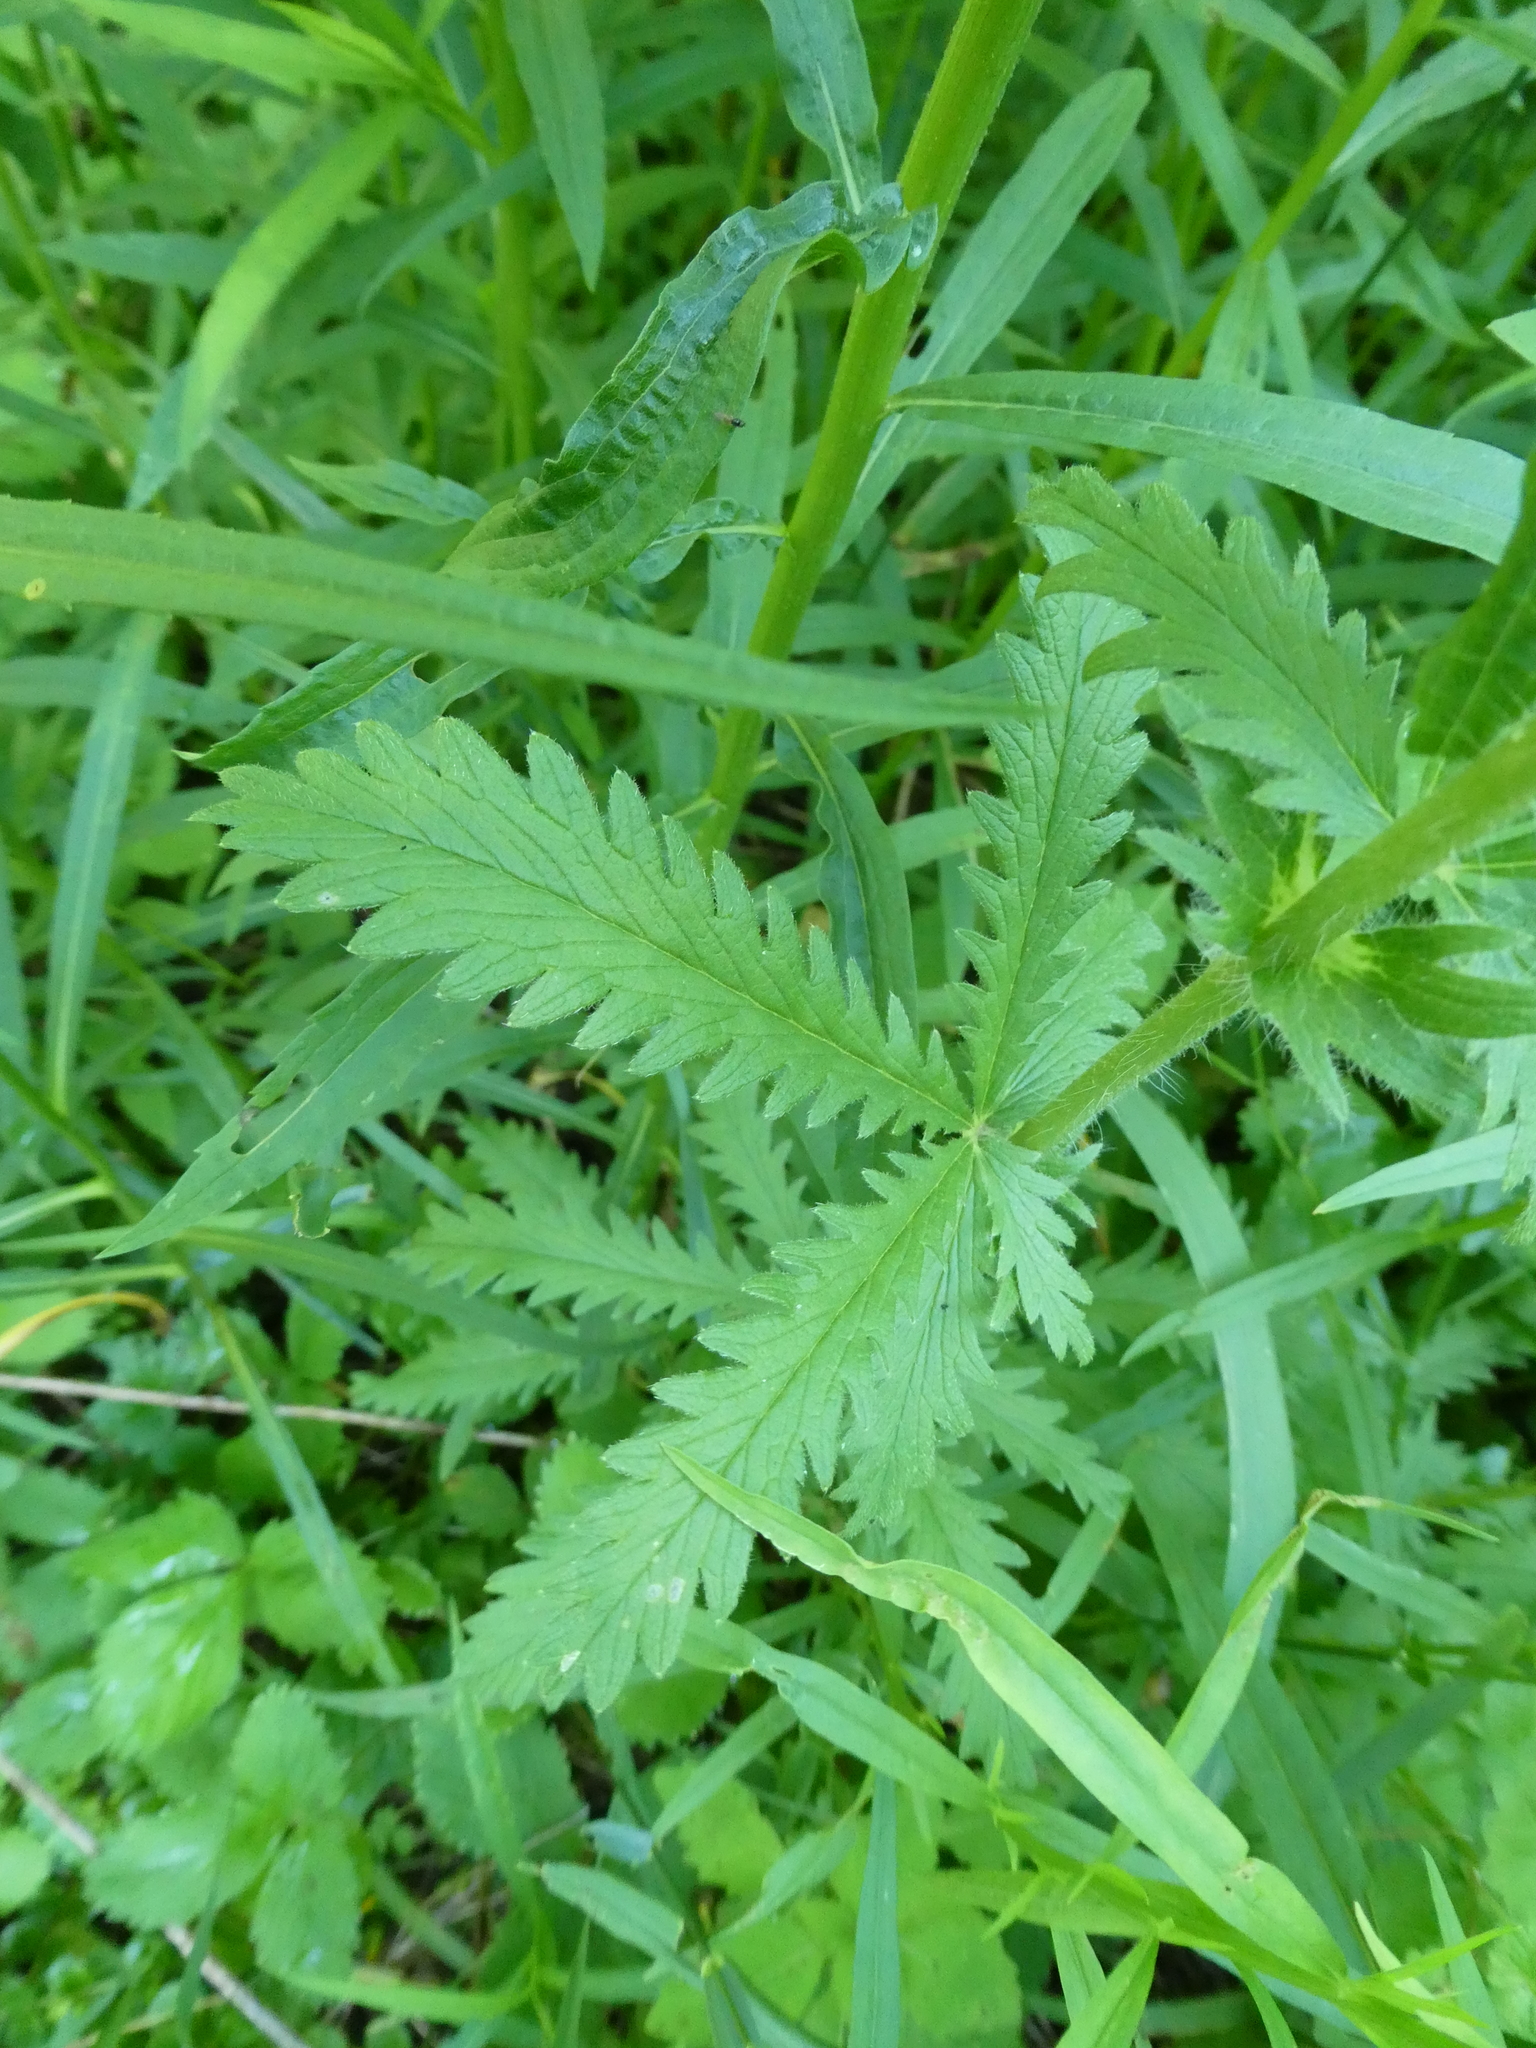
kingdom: Plantae
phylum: Tracheophyta
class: Magnoliopsida
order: Rosales
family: Rosaceae
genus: Potentilla
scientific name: Potentilla recta
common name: Sulphur cinquefoil
